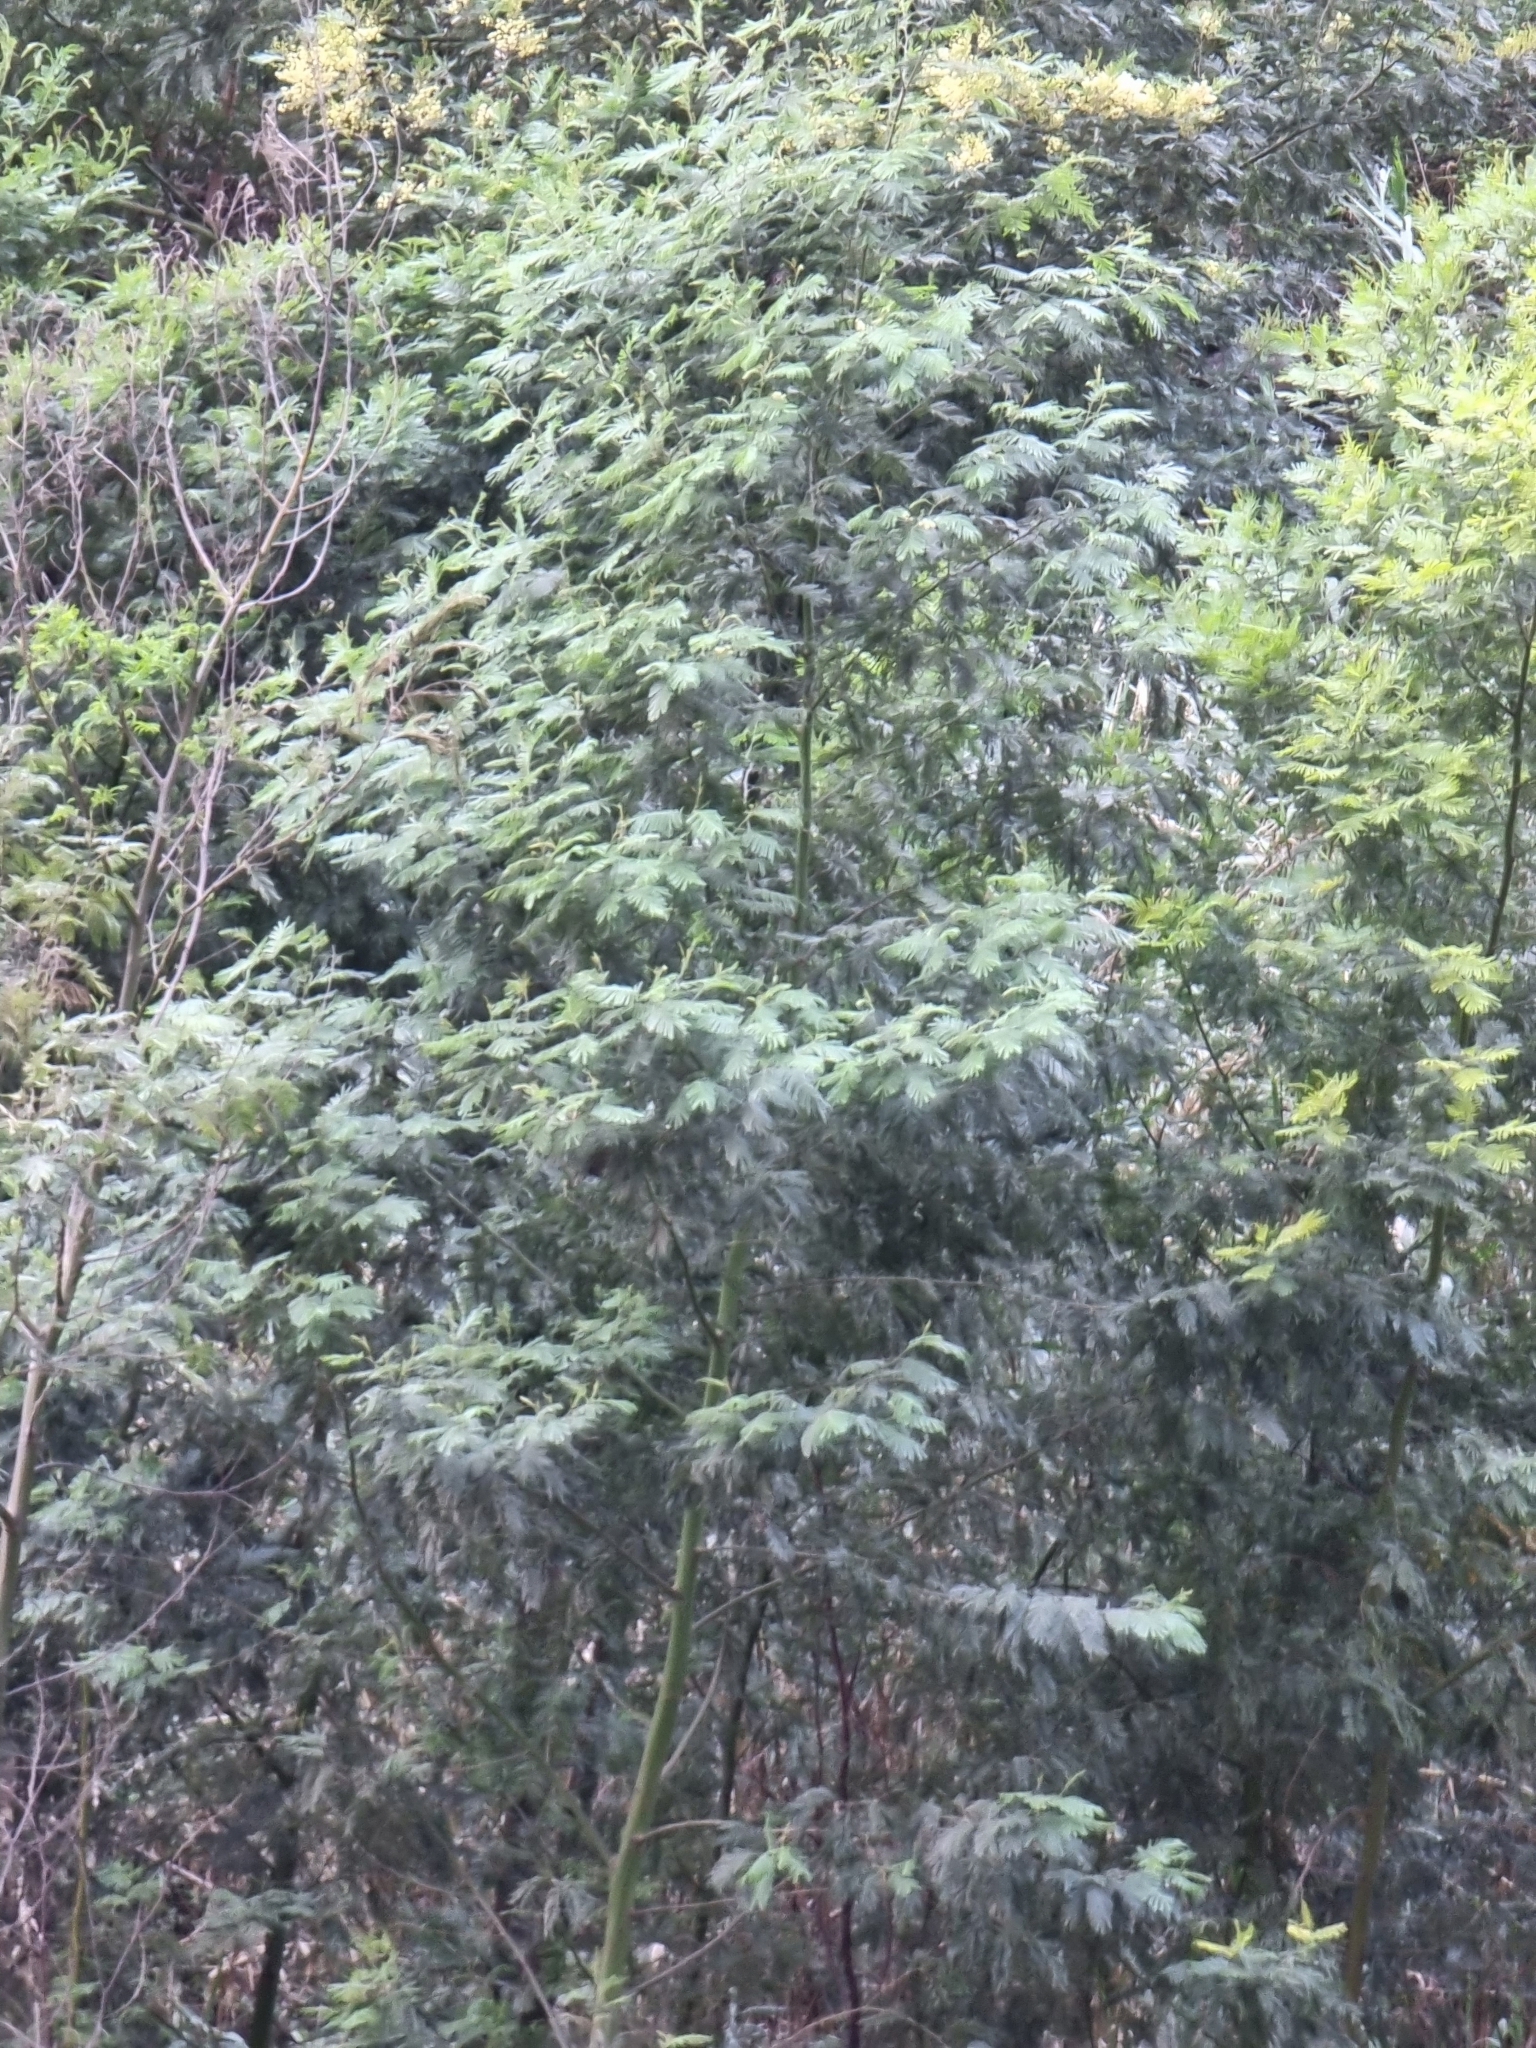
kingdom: Plantae
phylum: Tracheophyta
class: Magnoliopsida
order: Fabales
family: Fabaceae
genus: Acacia
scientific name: Acacia mearnsii
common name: Black wattle
